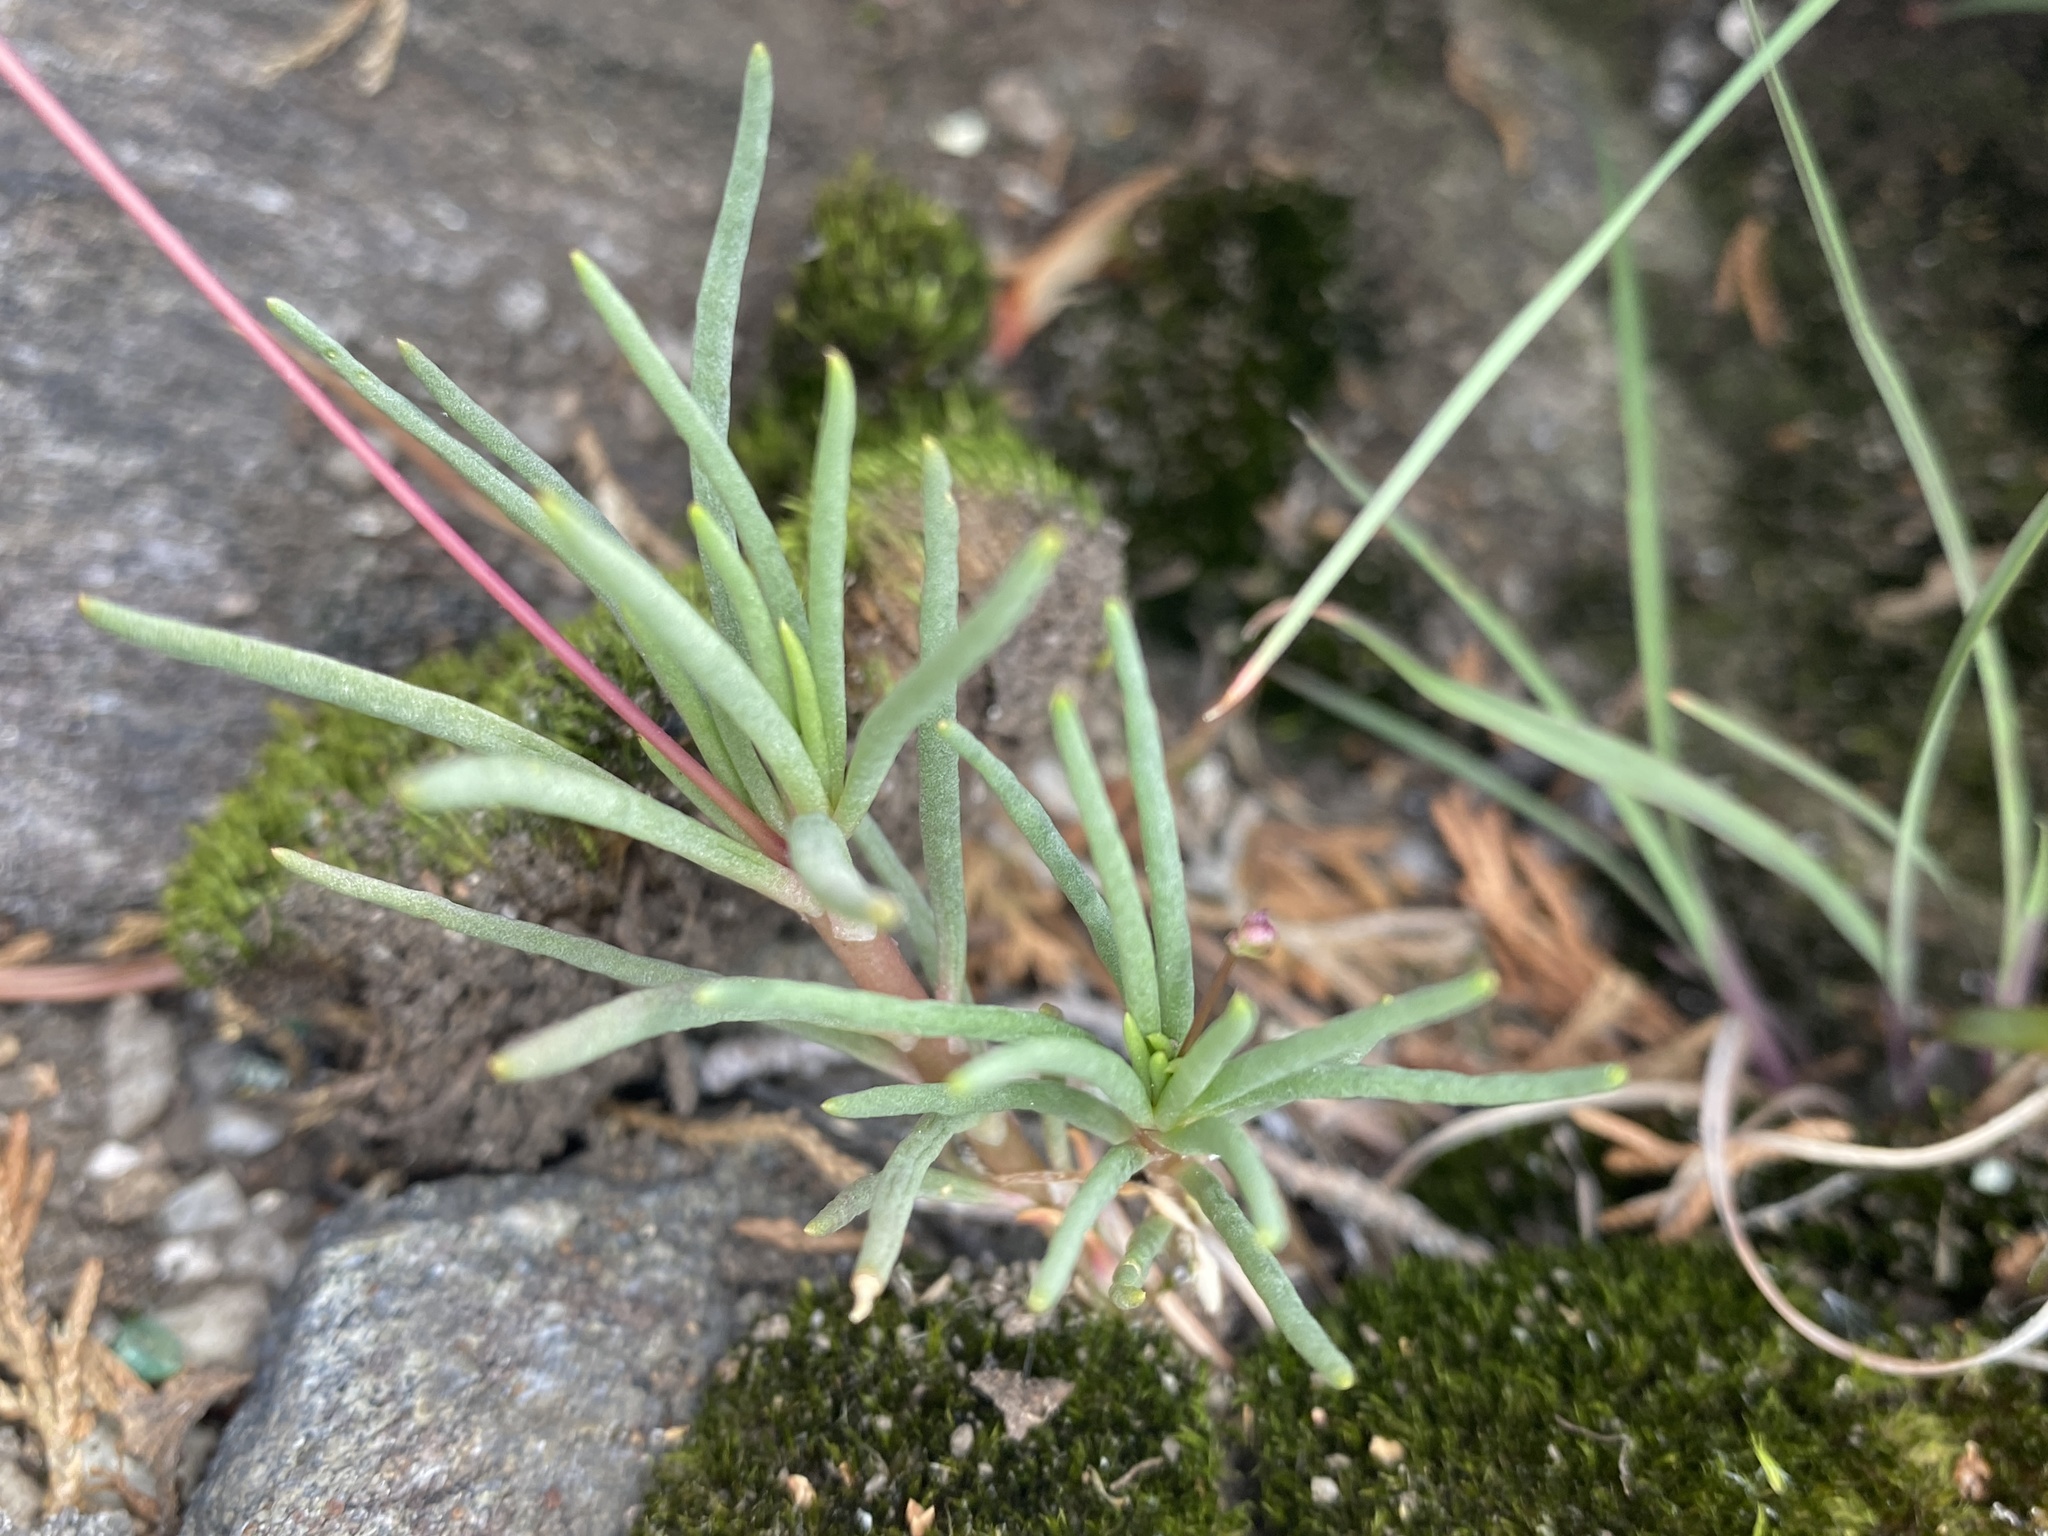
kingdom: Plantae
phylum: Tracheophyta
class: Magnoliopsida
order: Caryophyllales
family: Montiaceae
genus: Phemeranthus
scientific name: Phemeranthus teretifolius
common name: Quill fameflower
